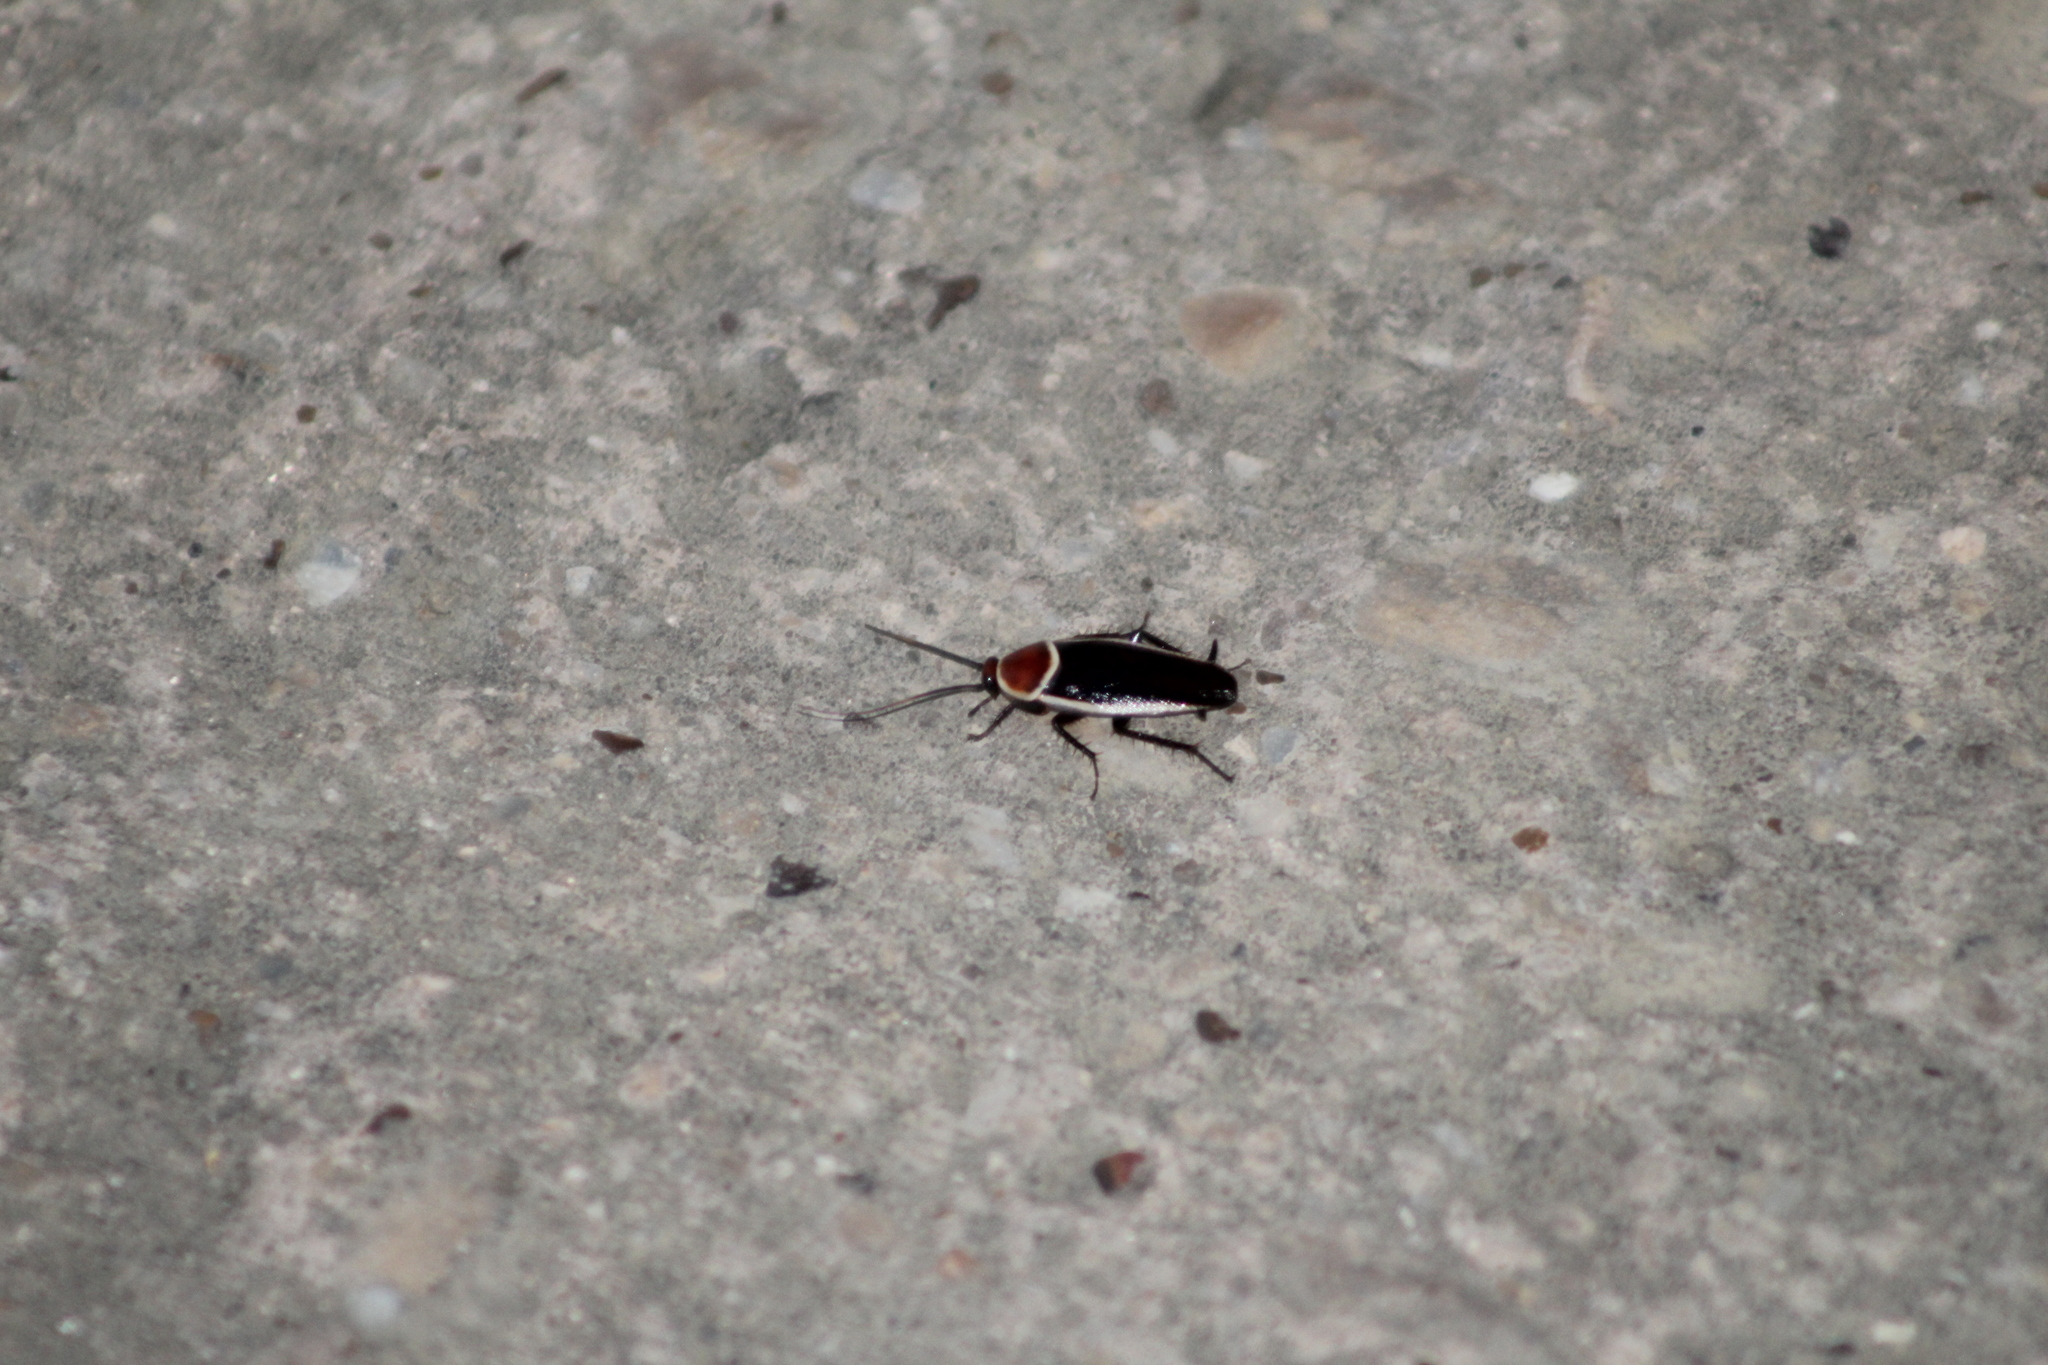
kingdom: Animalia
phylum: Arthropoda
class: Insecta
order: Blattodea
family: Ectobiidae
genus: Pseudomops
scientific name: Pseudomops septentrionalis
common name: Pale-bordered field cockroach
